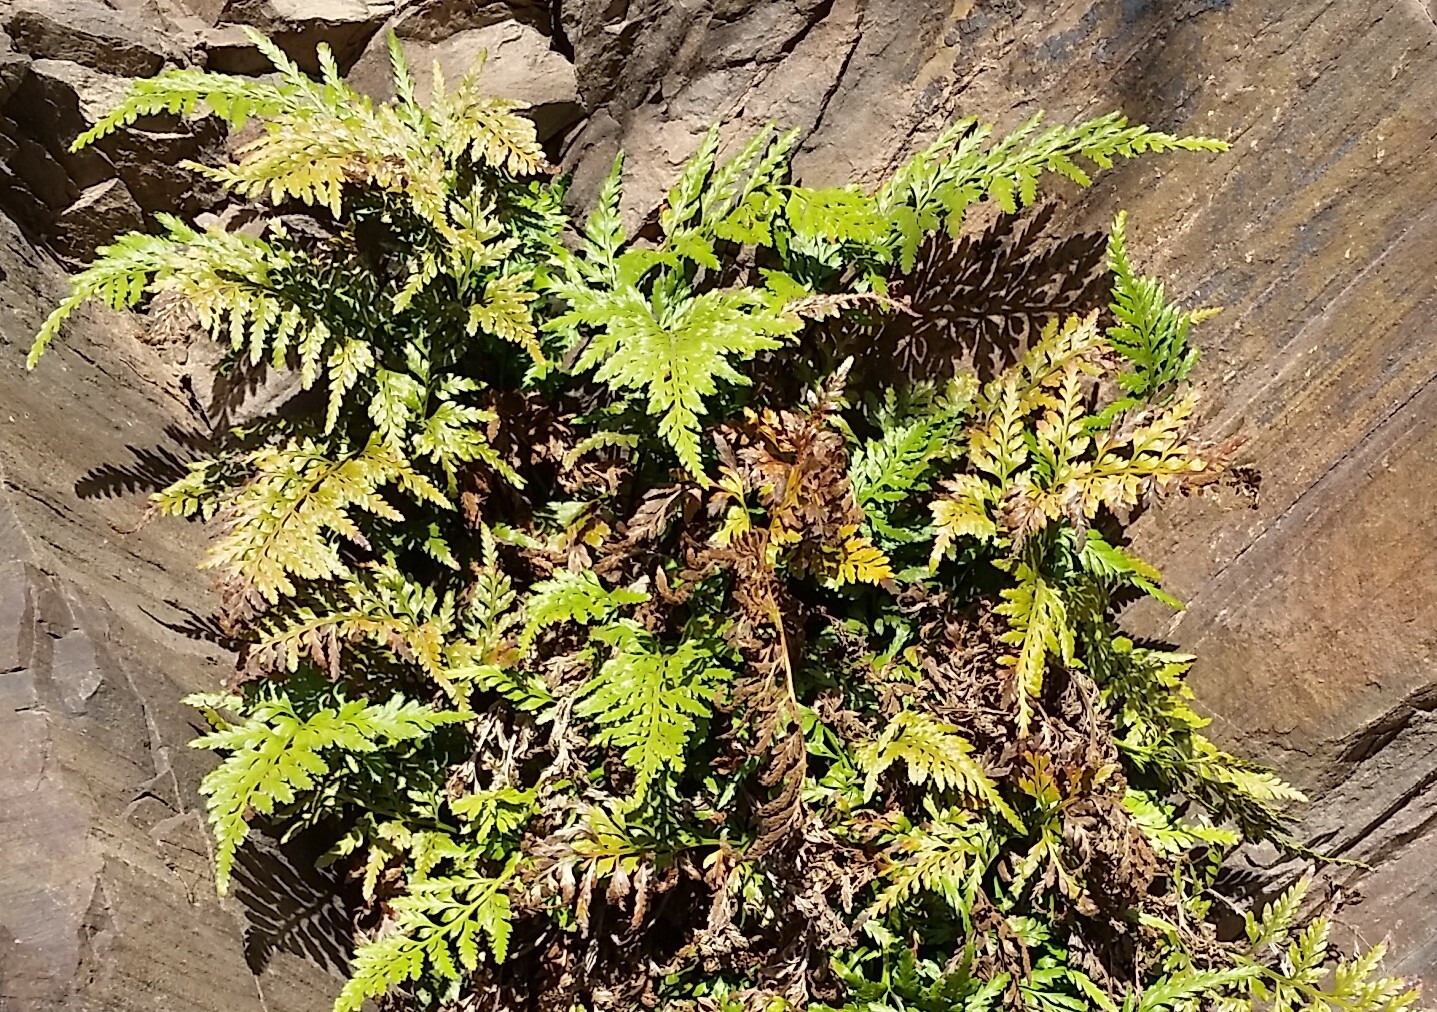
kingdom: Plantae
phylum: Tracheophyta
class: Polypodiopsida
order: Polypodiales
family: Aspleniaceae
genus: Asplenium
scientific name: Asplenium adiantum-nigrum
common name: Black spleenwort
